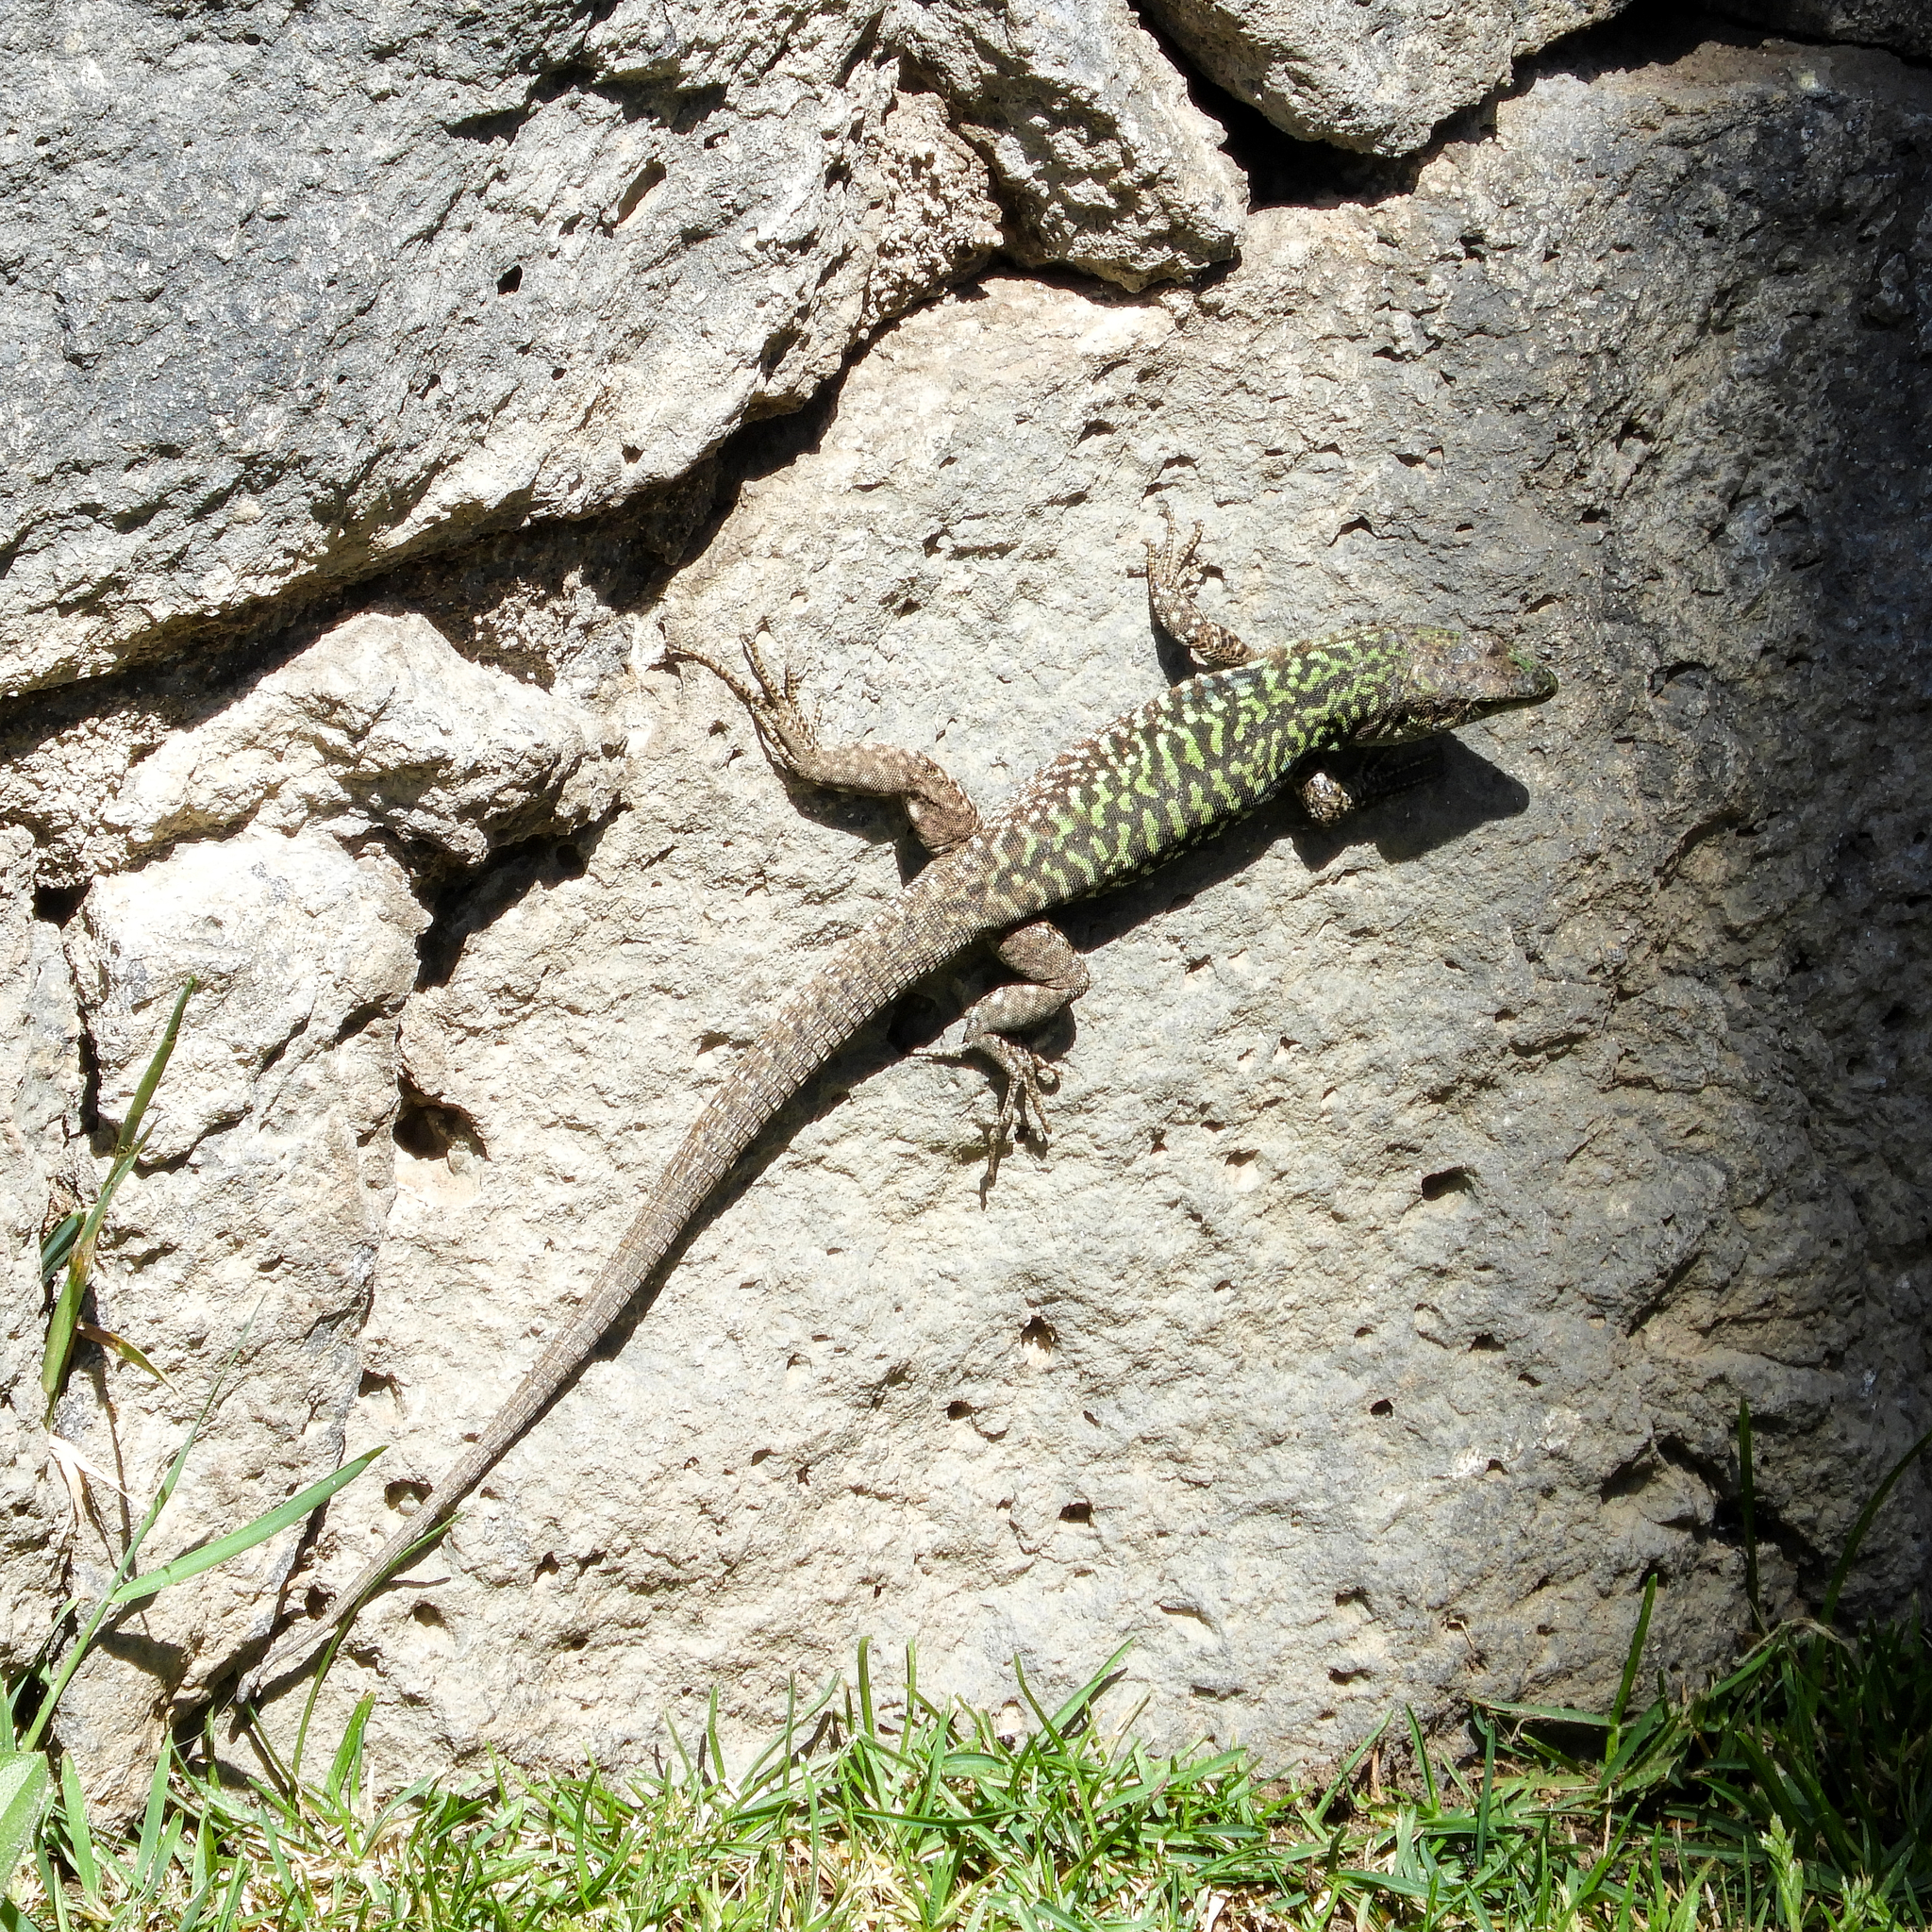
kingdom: Animalia
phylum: Chordata
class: Squamata
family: Lacertidae
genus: Podarcis
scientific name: Podarcis siculus
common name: Italian wall lizard
